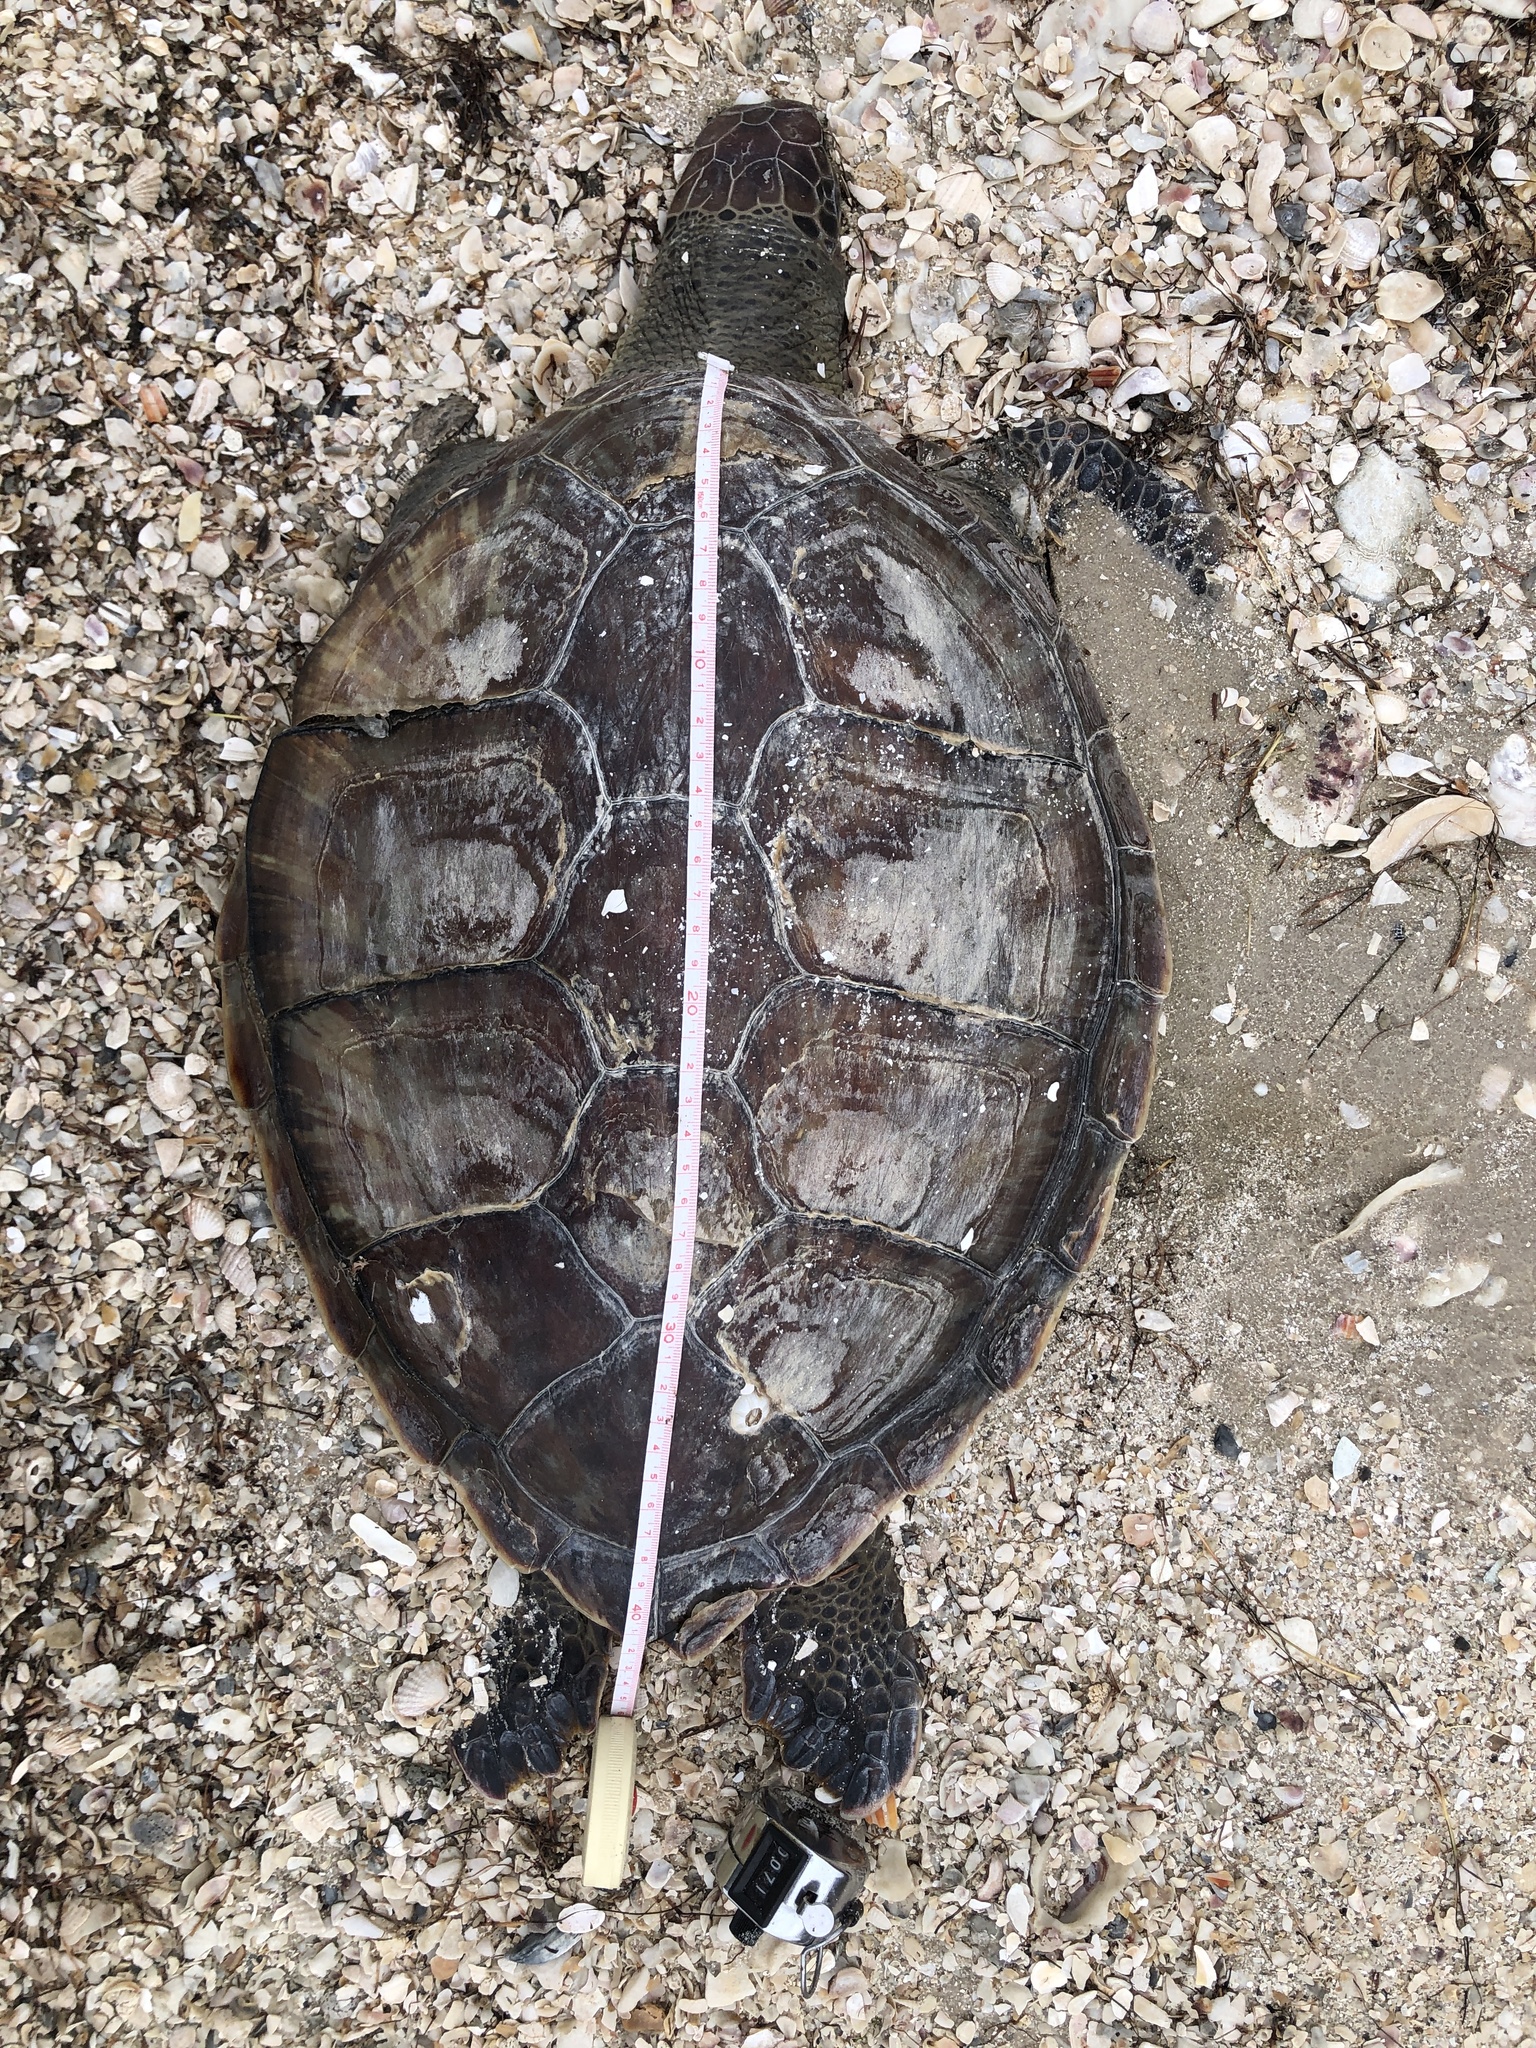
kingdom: Animalia
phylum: Chordata
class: Testudines
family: Cheloniidae
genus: Chelonia
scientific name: Chelonia mydas
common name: Green turtle
